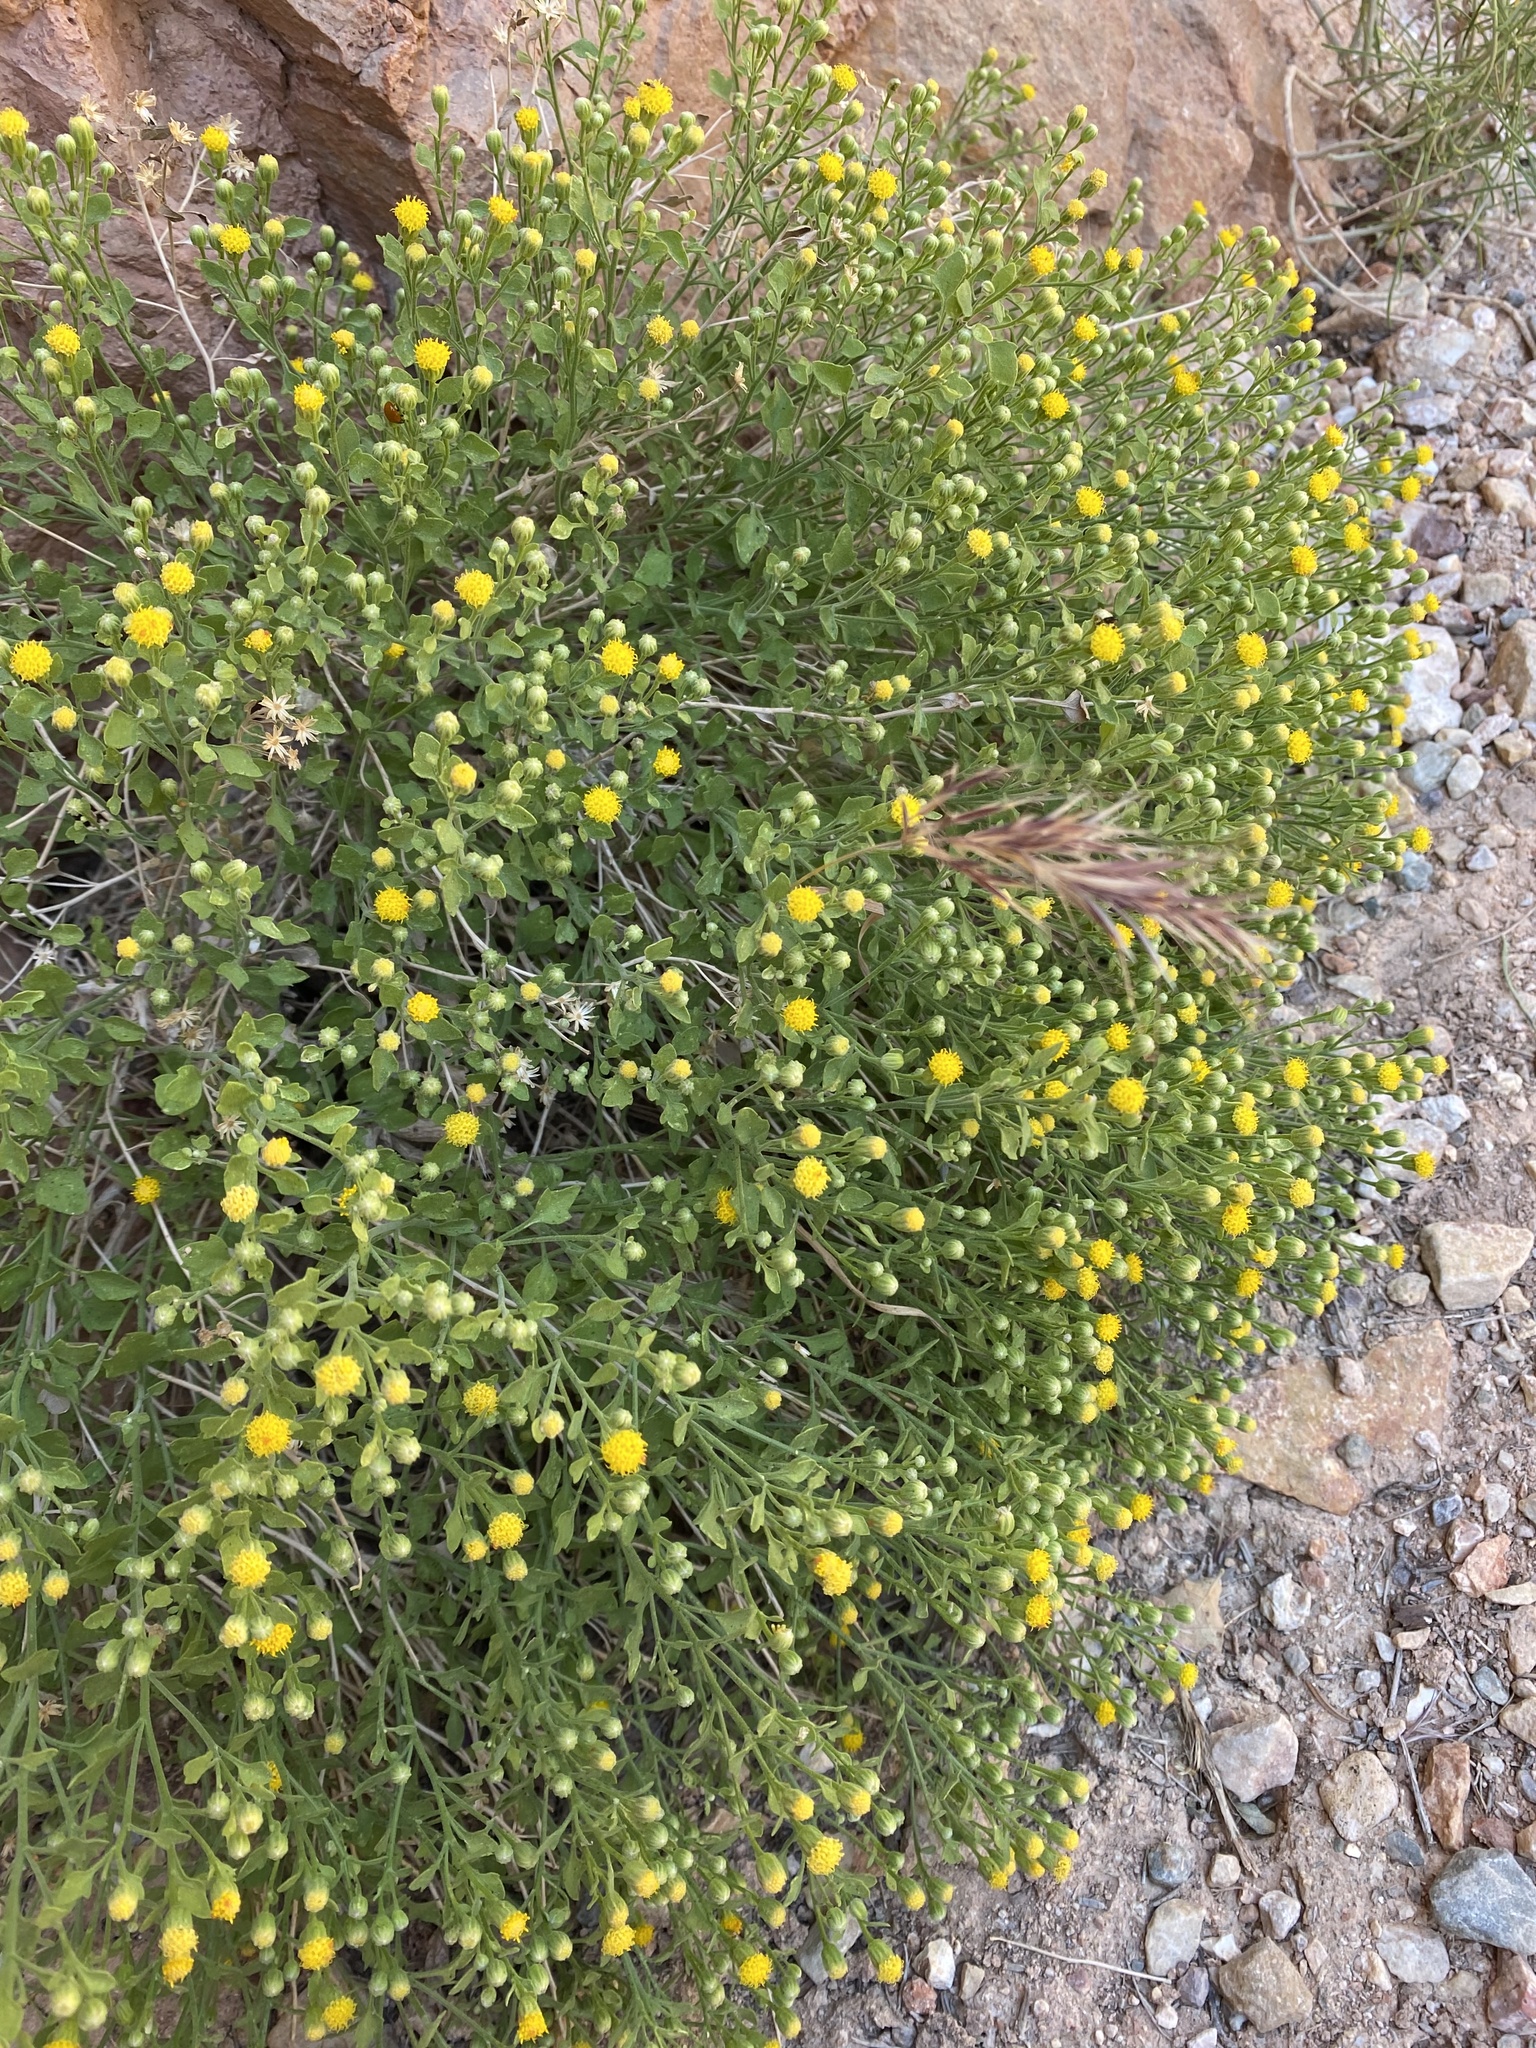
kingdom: Plantae
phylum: Tracheophyta
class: Magnoliopsida
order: Asterales
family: Asteraceae
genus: Laphamia
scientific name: Laphamia congesta
